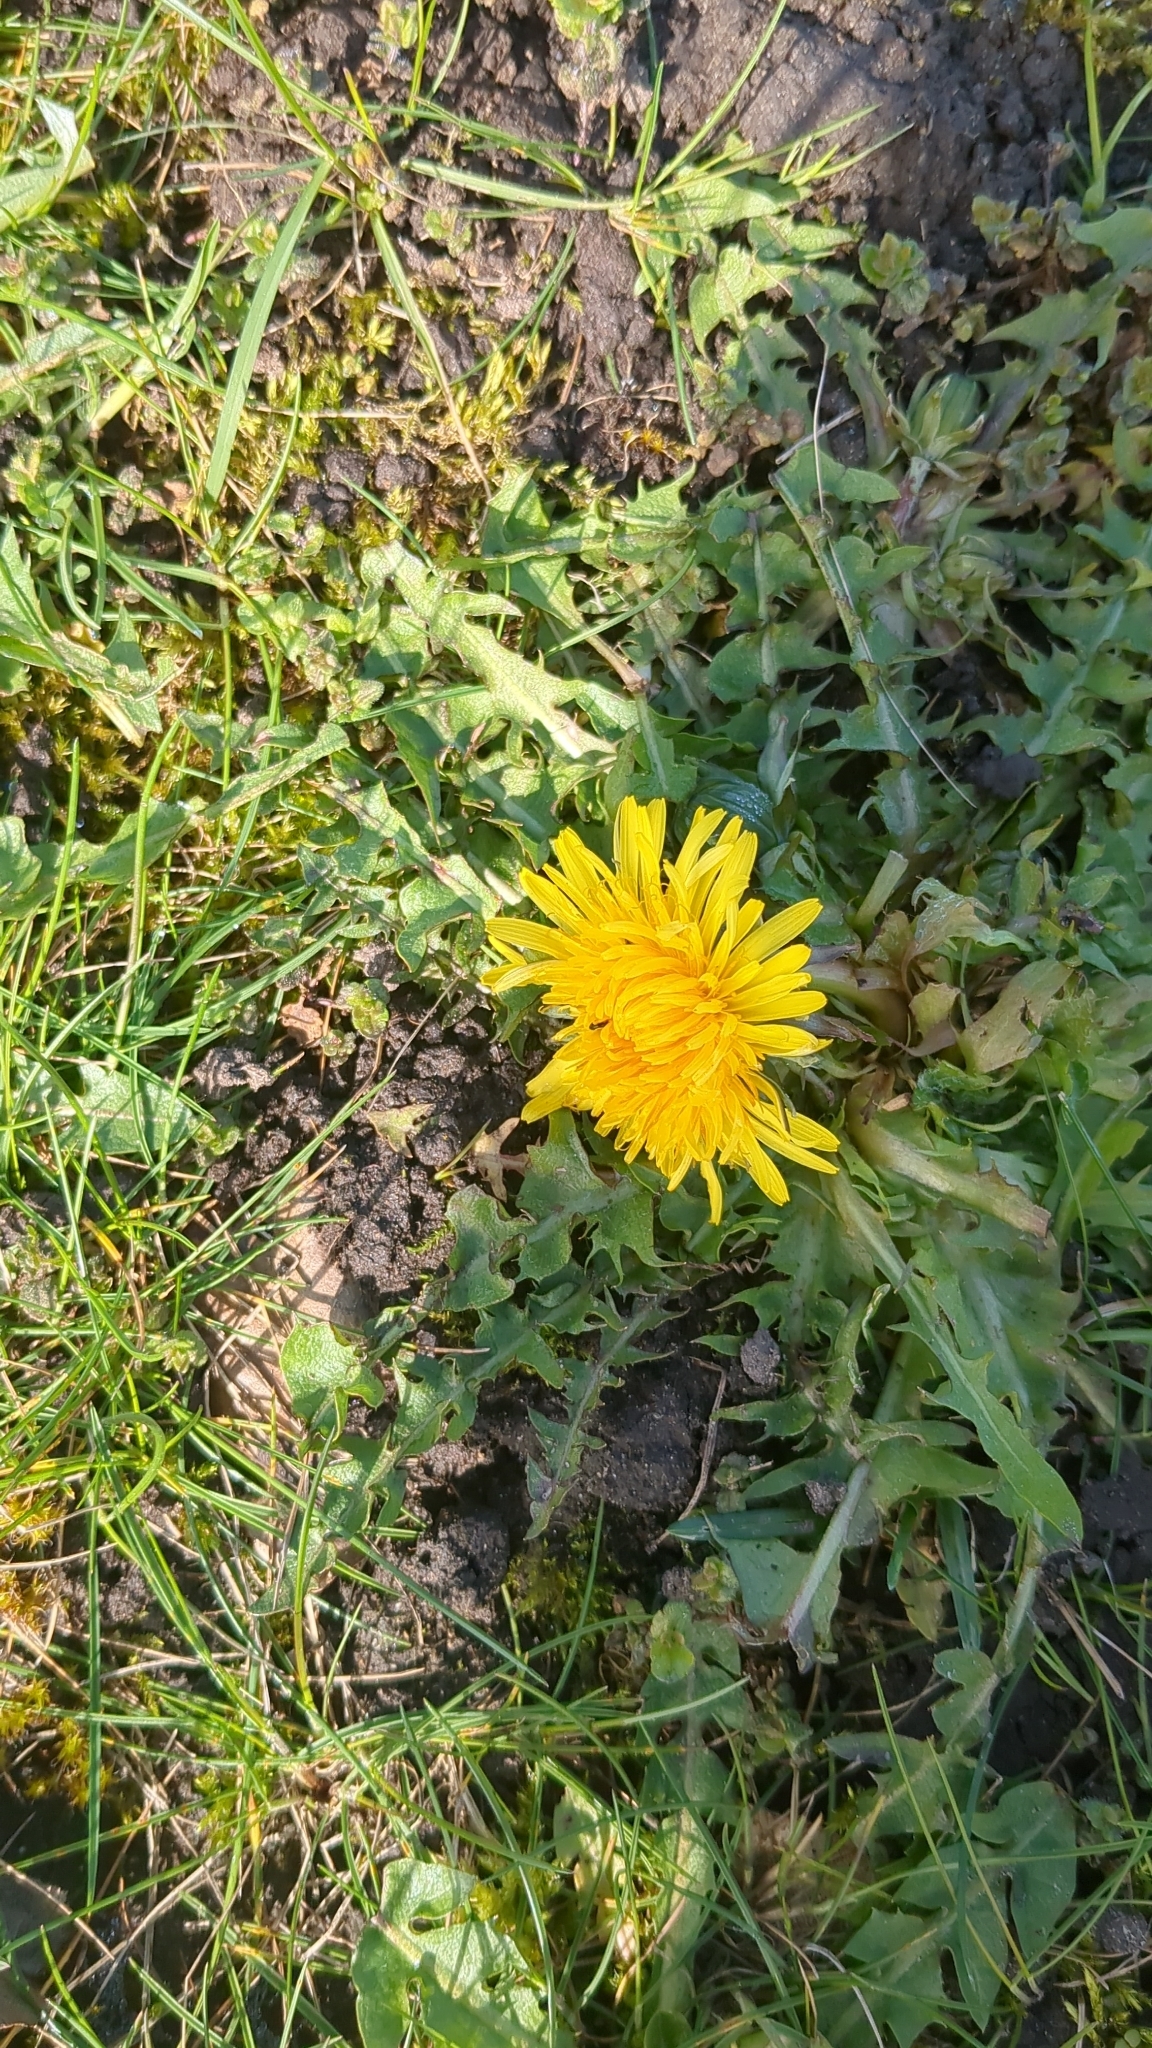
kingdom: Plantae
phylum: Tracheophyta
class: Magnoliopsida
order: Asterales
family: Asteraceae
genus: Taraxacum
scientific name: Taraxacum officinale
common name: Common dandelion
